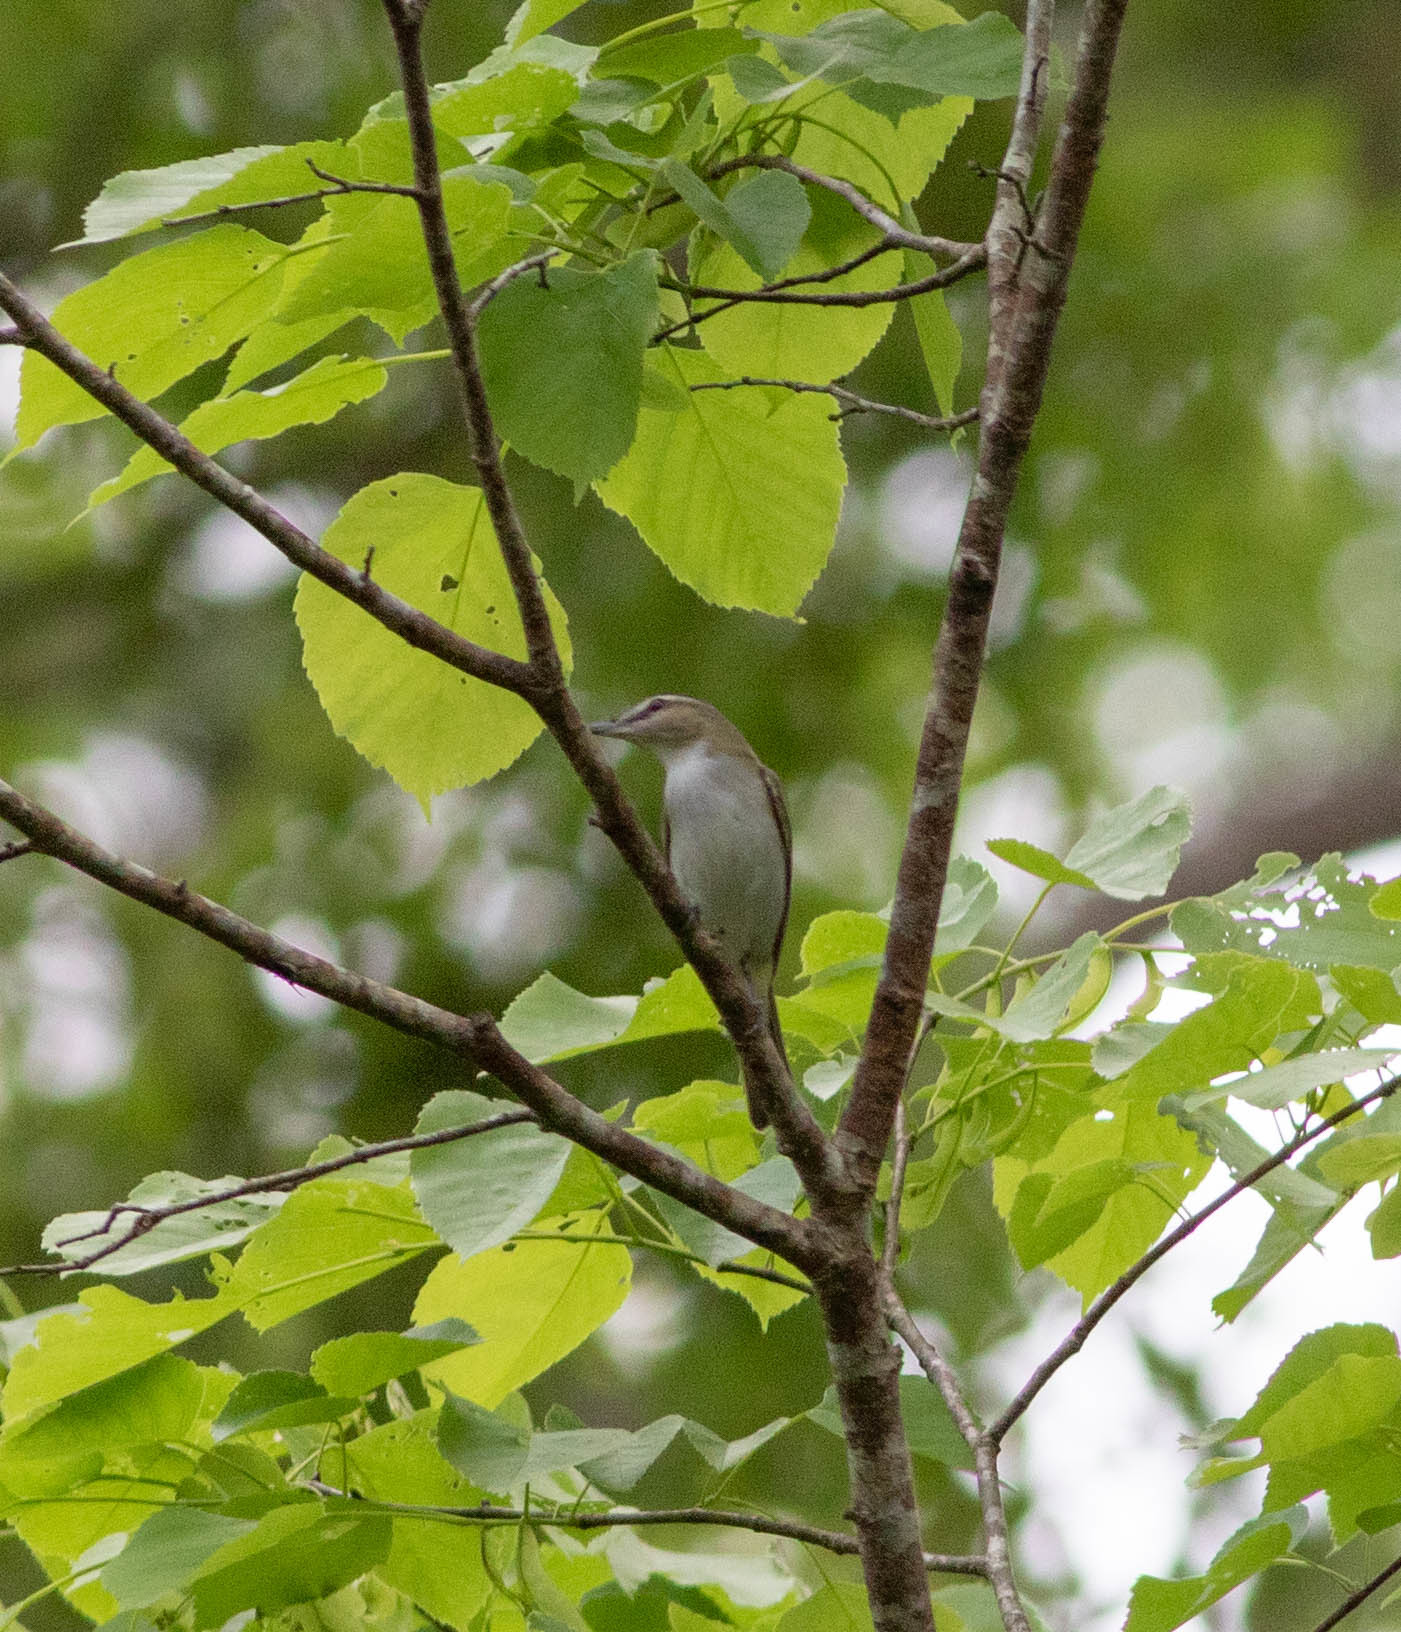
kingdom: Animalia
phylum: Chordata
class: Aves
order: Passeriformes
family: Vireonidae
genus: Vireo
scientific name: Vireo olivaceus
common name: Red-eyed vireo
